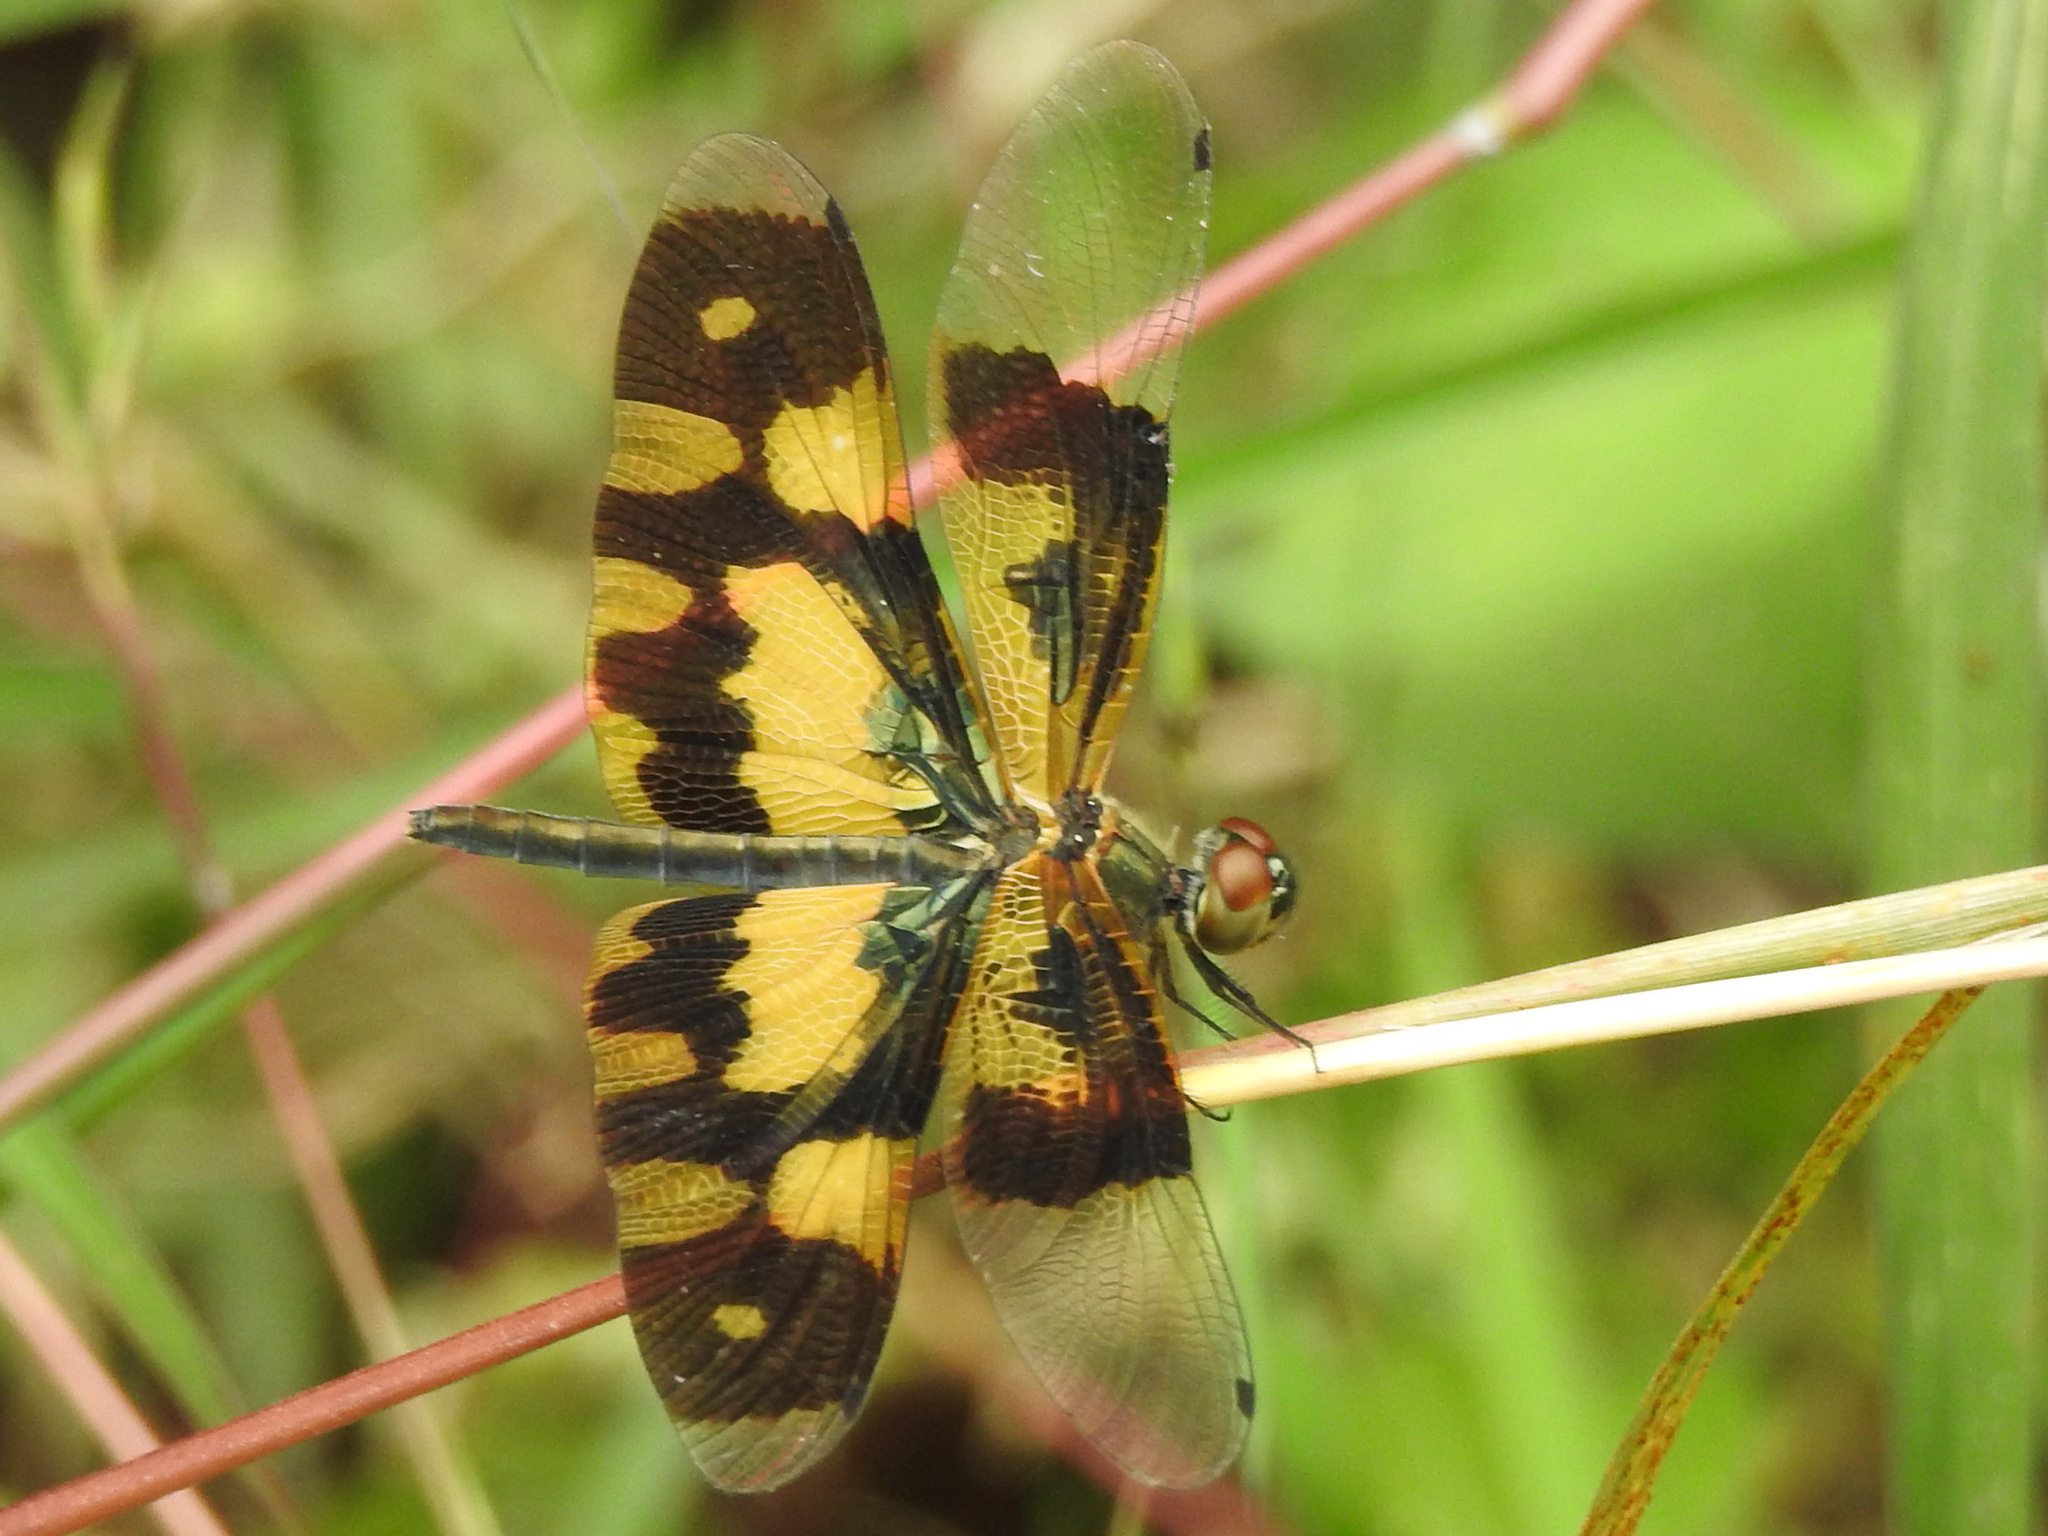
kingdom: Animalia
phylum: Arthropoda
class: Insecta
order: Odonata
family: Libellulidae
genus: Rhyothemis
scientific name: Rhyothemis variegata
